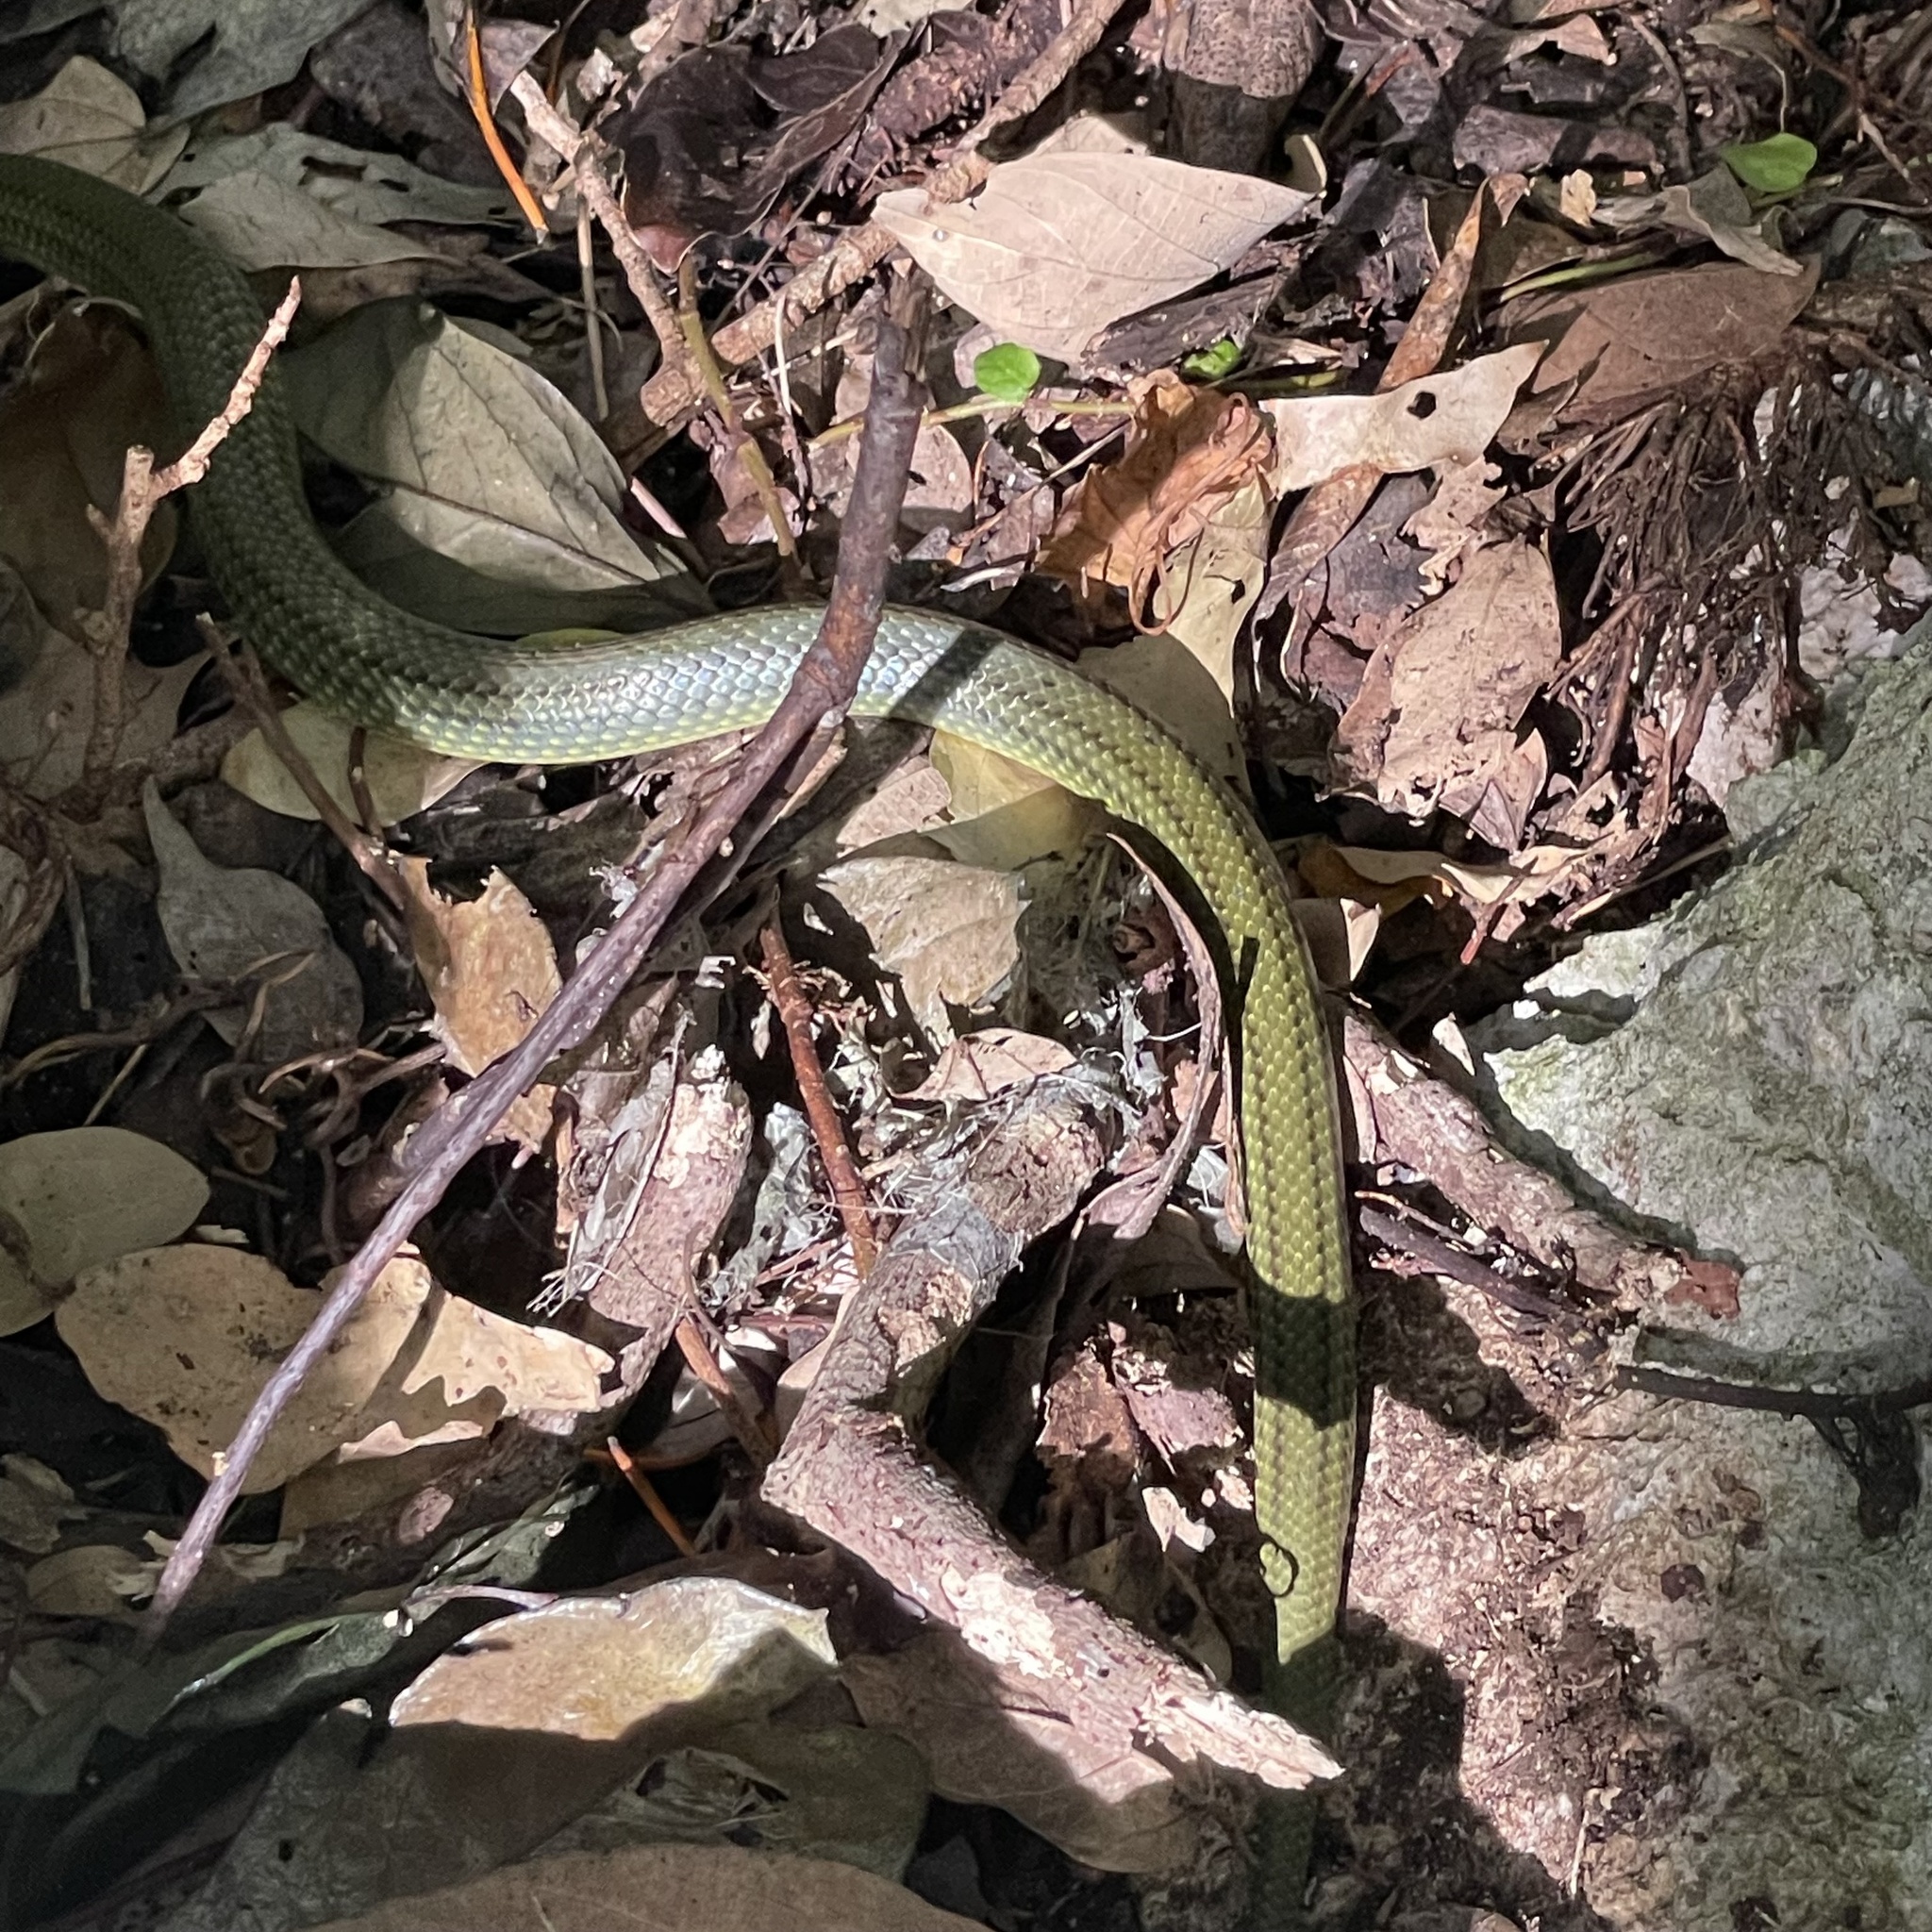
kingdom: Animalia
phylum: Chordata
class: Squamata
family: Colubridae
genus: Ptyas
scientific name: Ptyas semicarinata
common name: Ryukyu green snake
